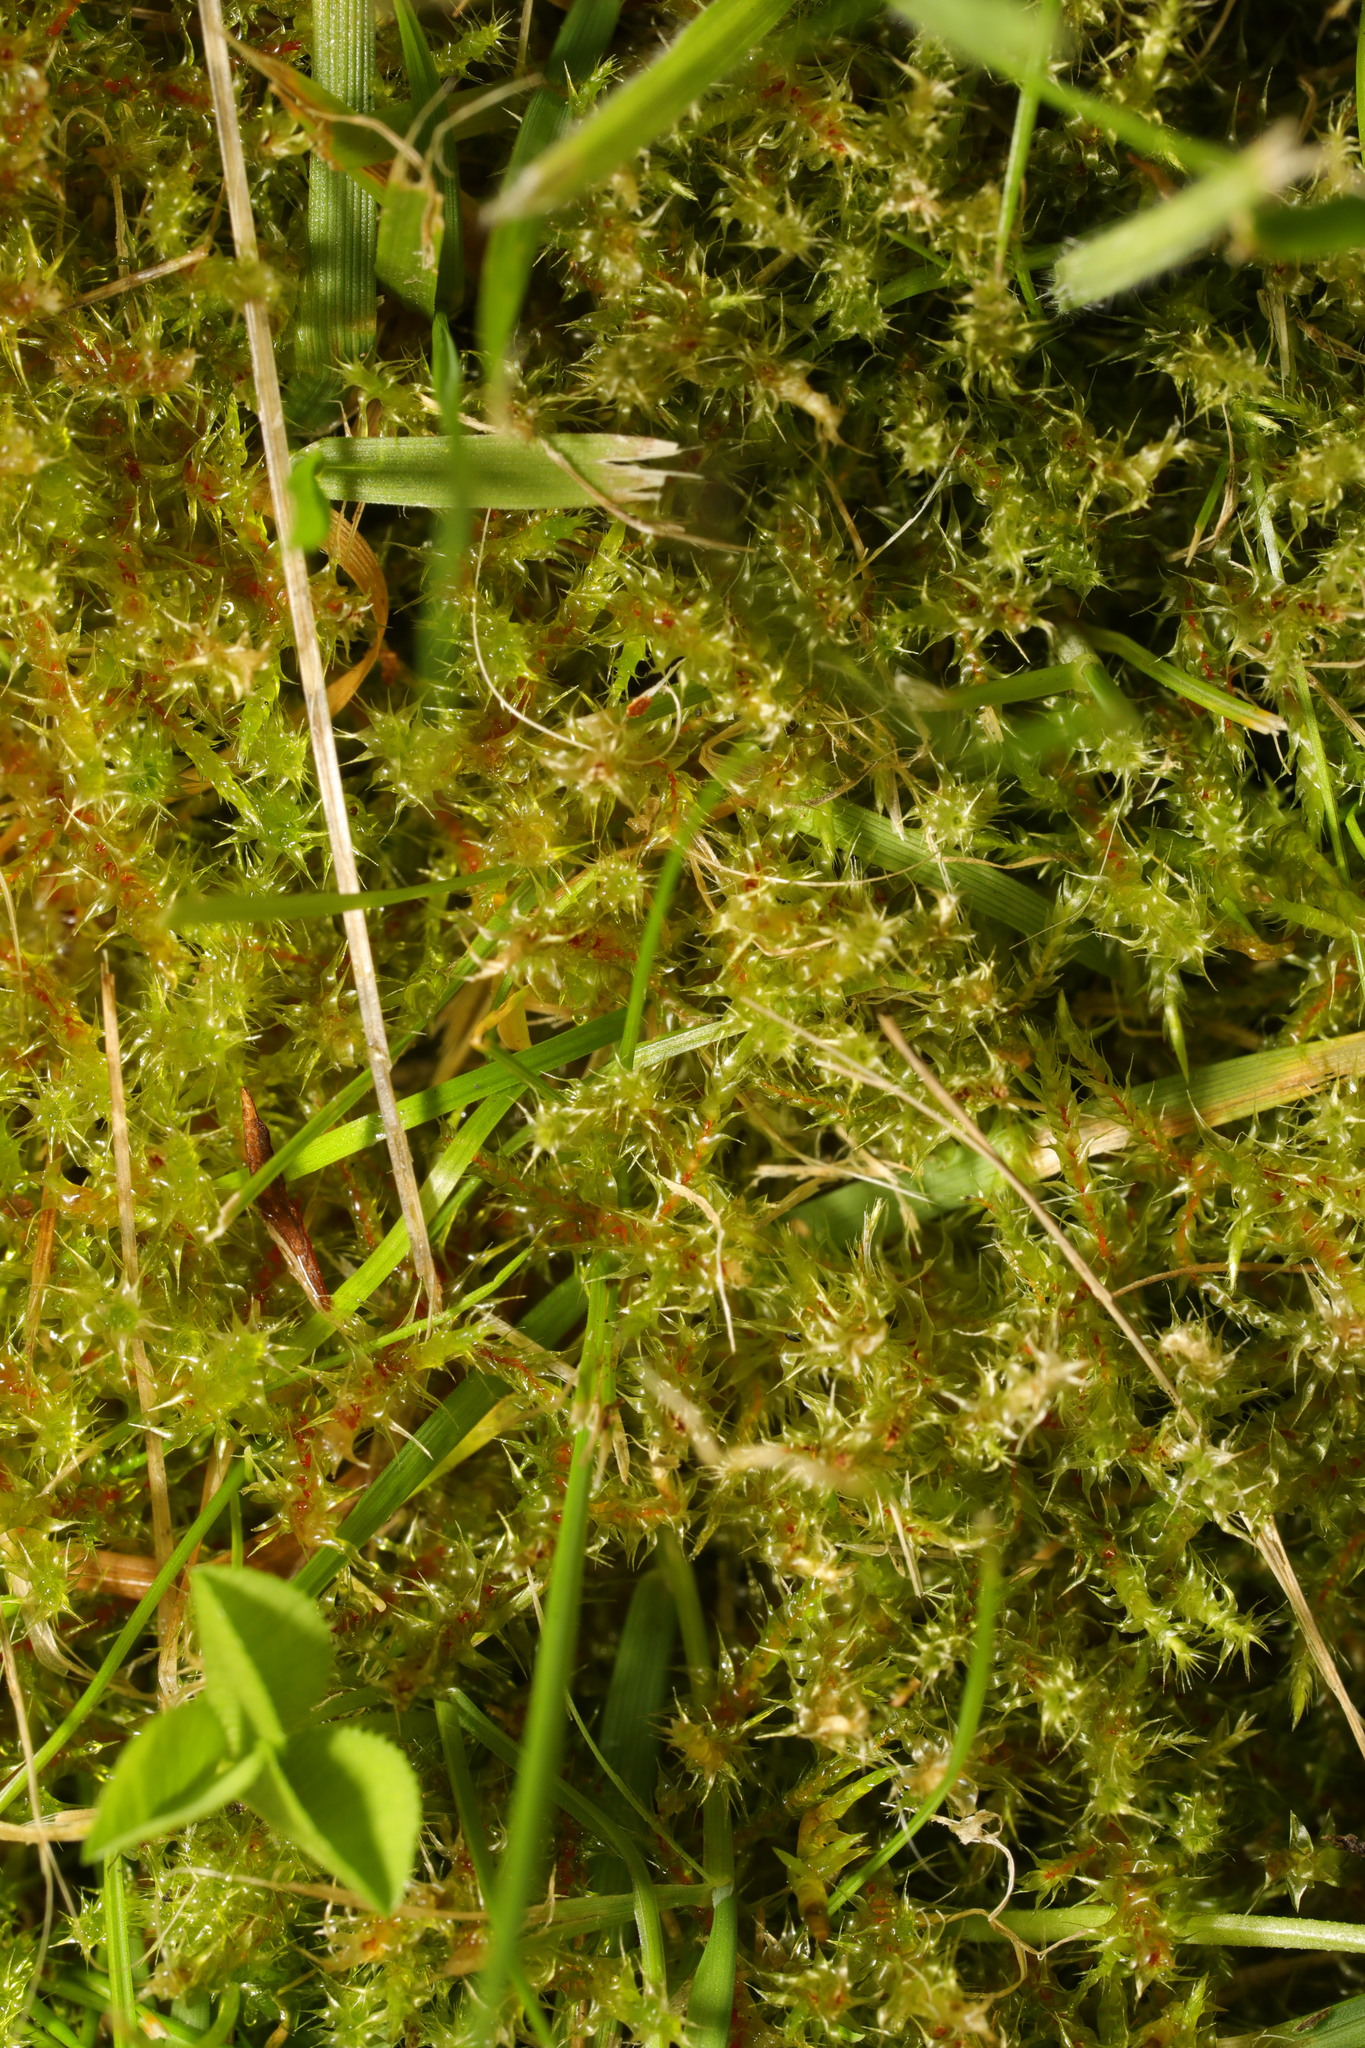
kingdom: Plantae
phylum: Bryophyta
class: Bryopsida
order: Hypnales
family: Hylocomiaceae
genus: Rhytidiadelphus
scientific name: Rhytidiadelphus squarrosus
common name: Springy turf-moss
